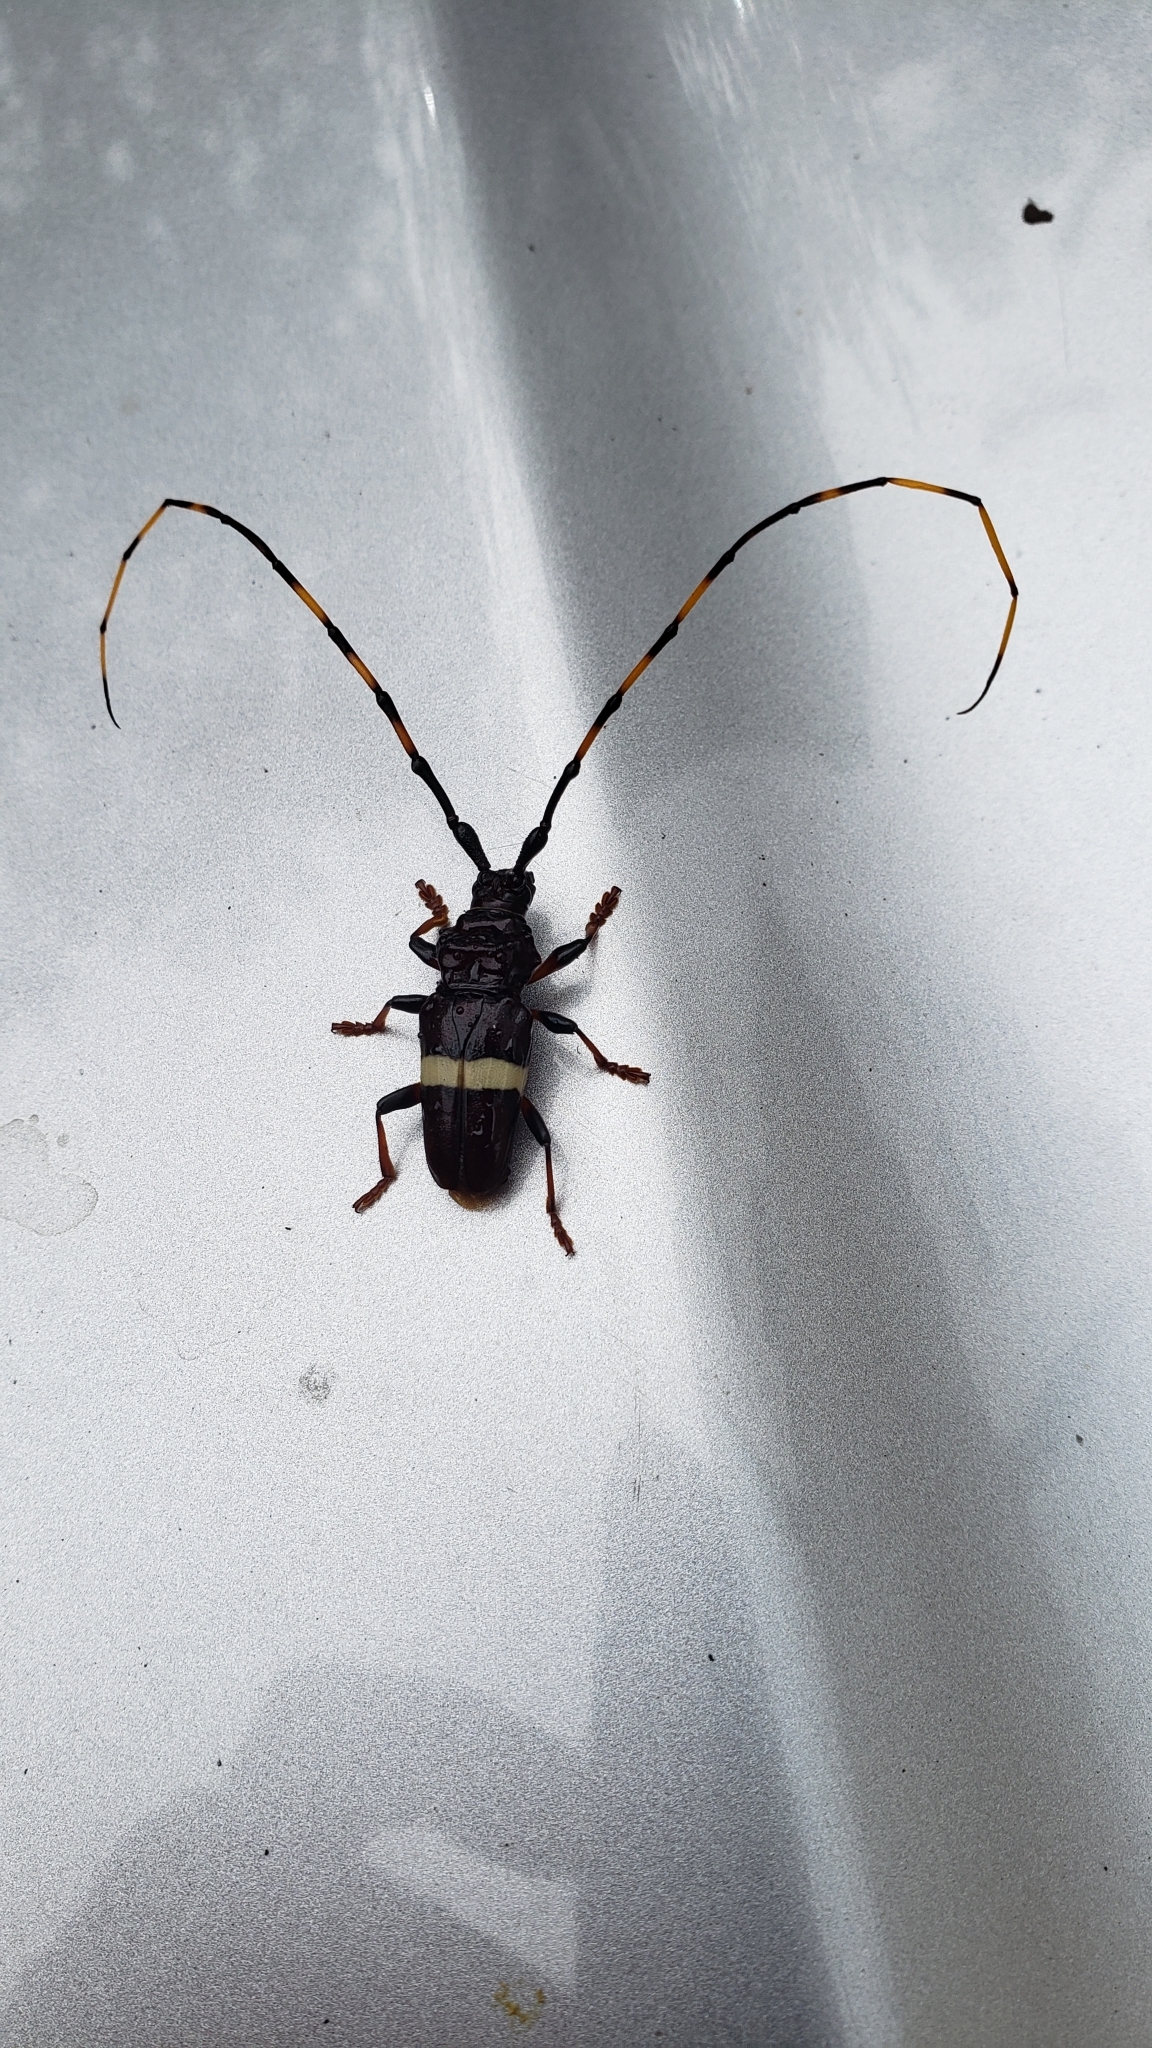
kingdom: Animalia
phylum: Arthropoda
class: Insecta
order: Coleoptera
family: Cerambycidae
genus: Trachyderes
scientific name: Trachyderes succinctus
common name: Mango longhorn
